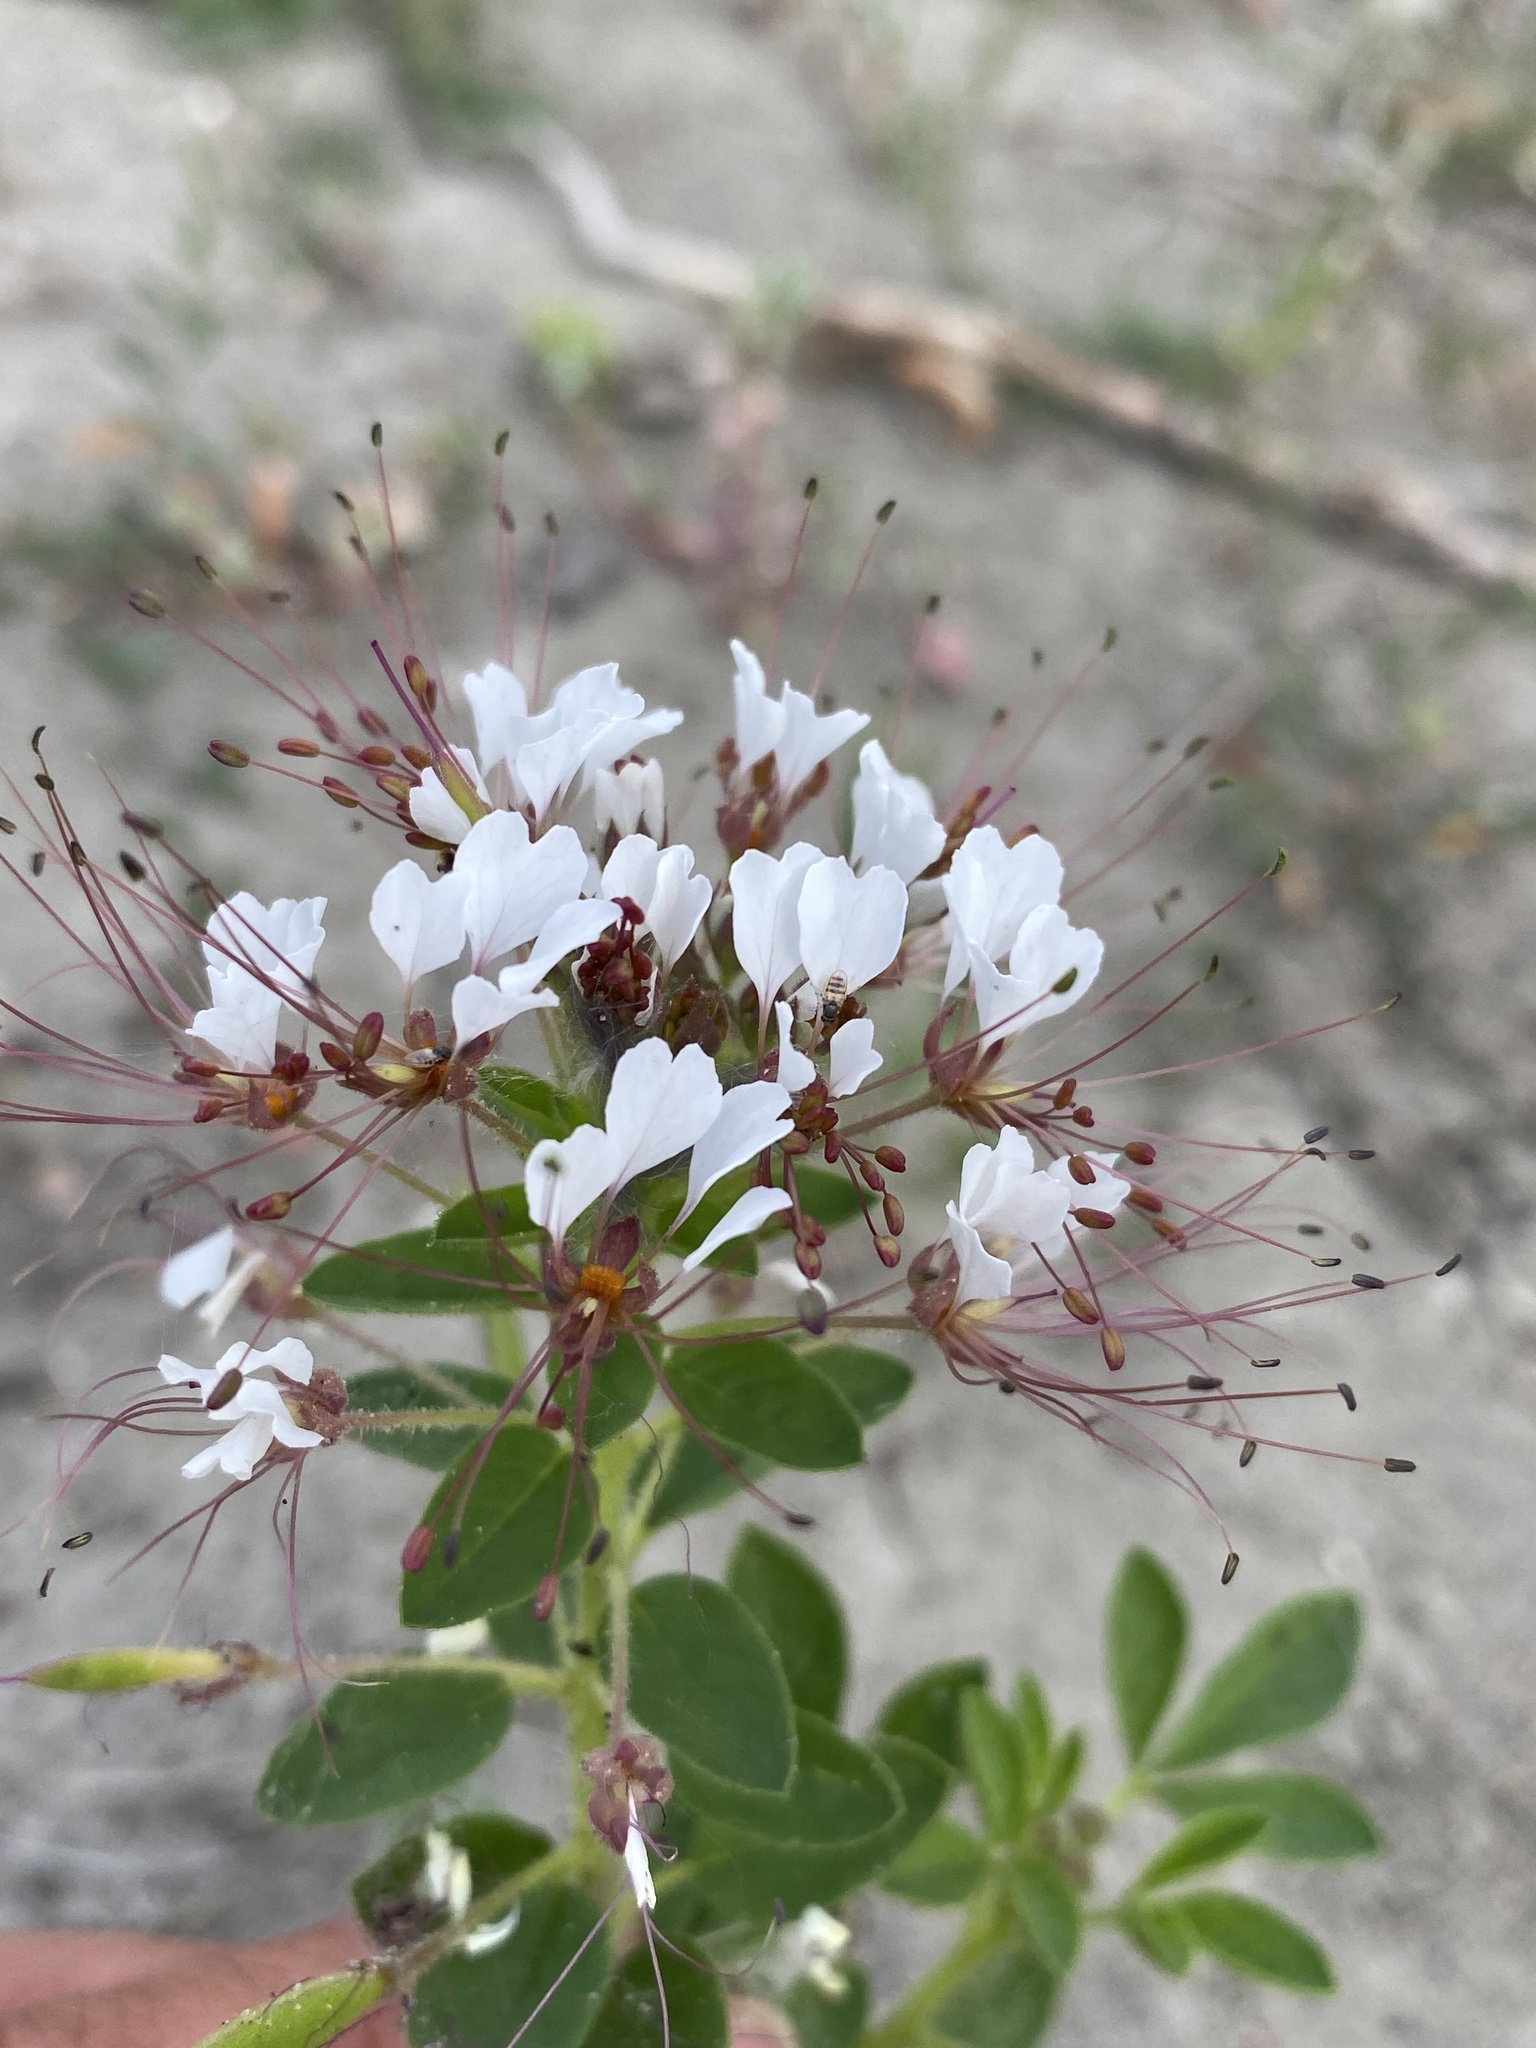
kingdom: Plantae
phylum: Tracheophyta
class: Magnoliopsida
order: Brassicales
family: Cleomaceae
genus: Polanisia
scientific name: Polanisia dodecandra
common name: Clammyweed
